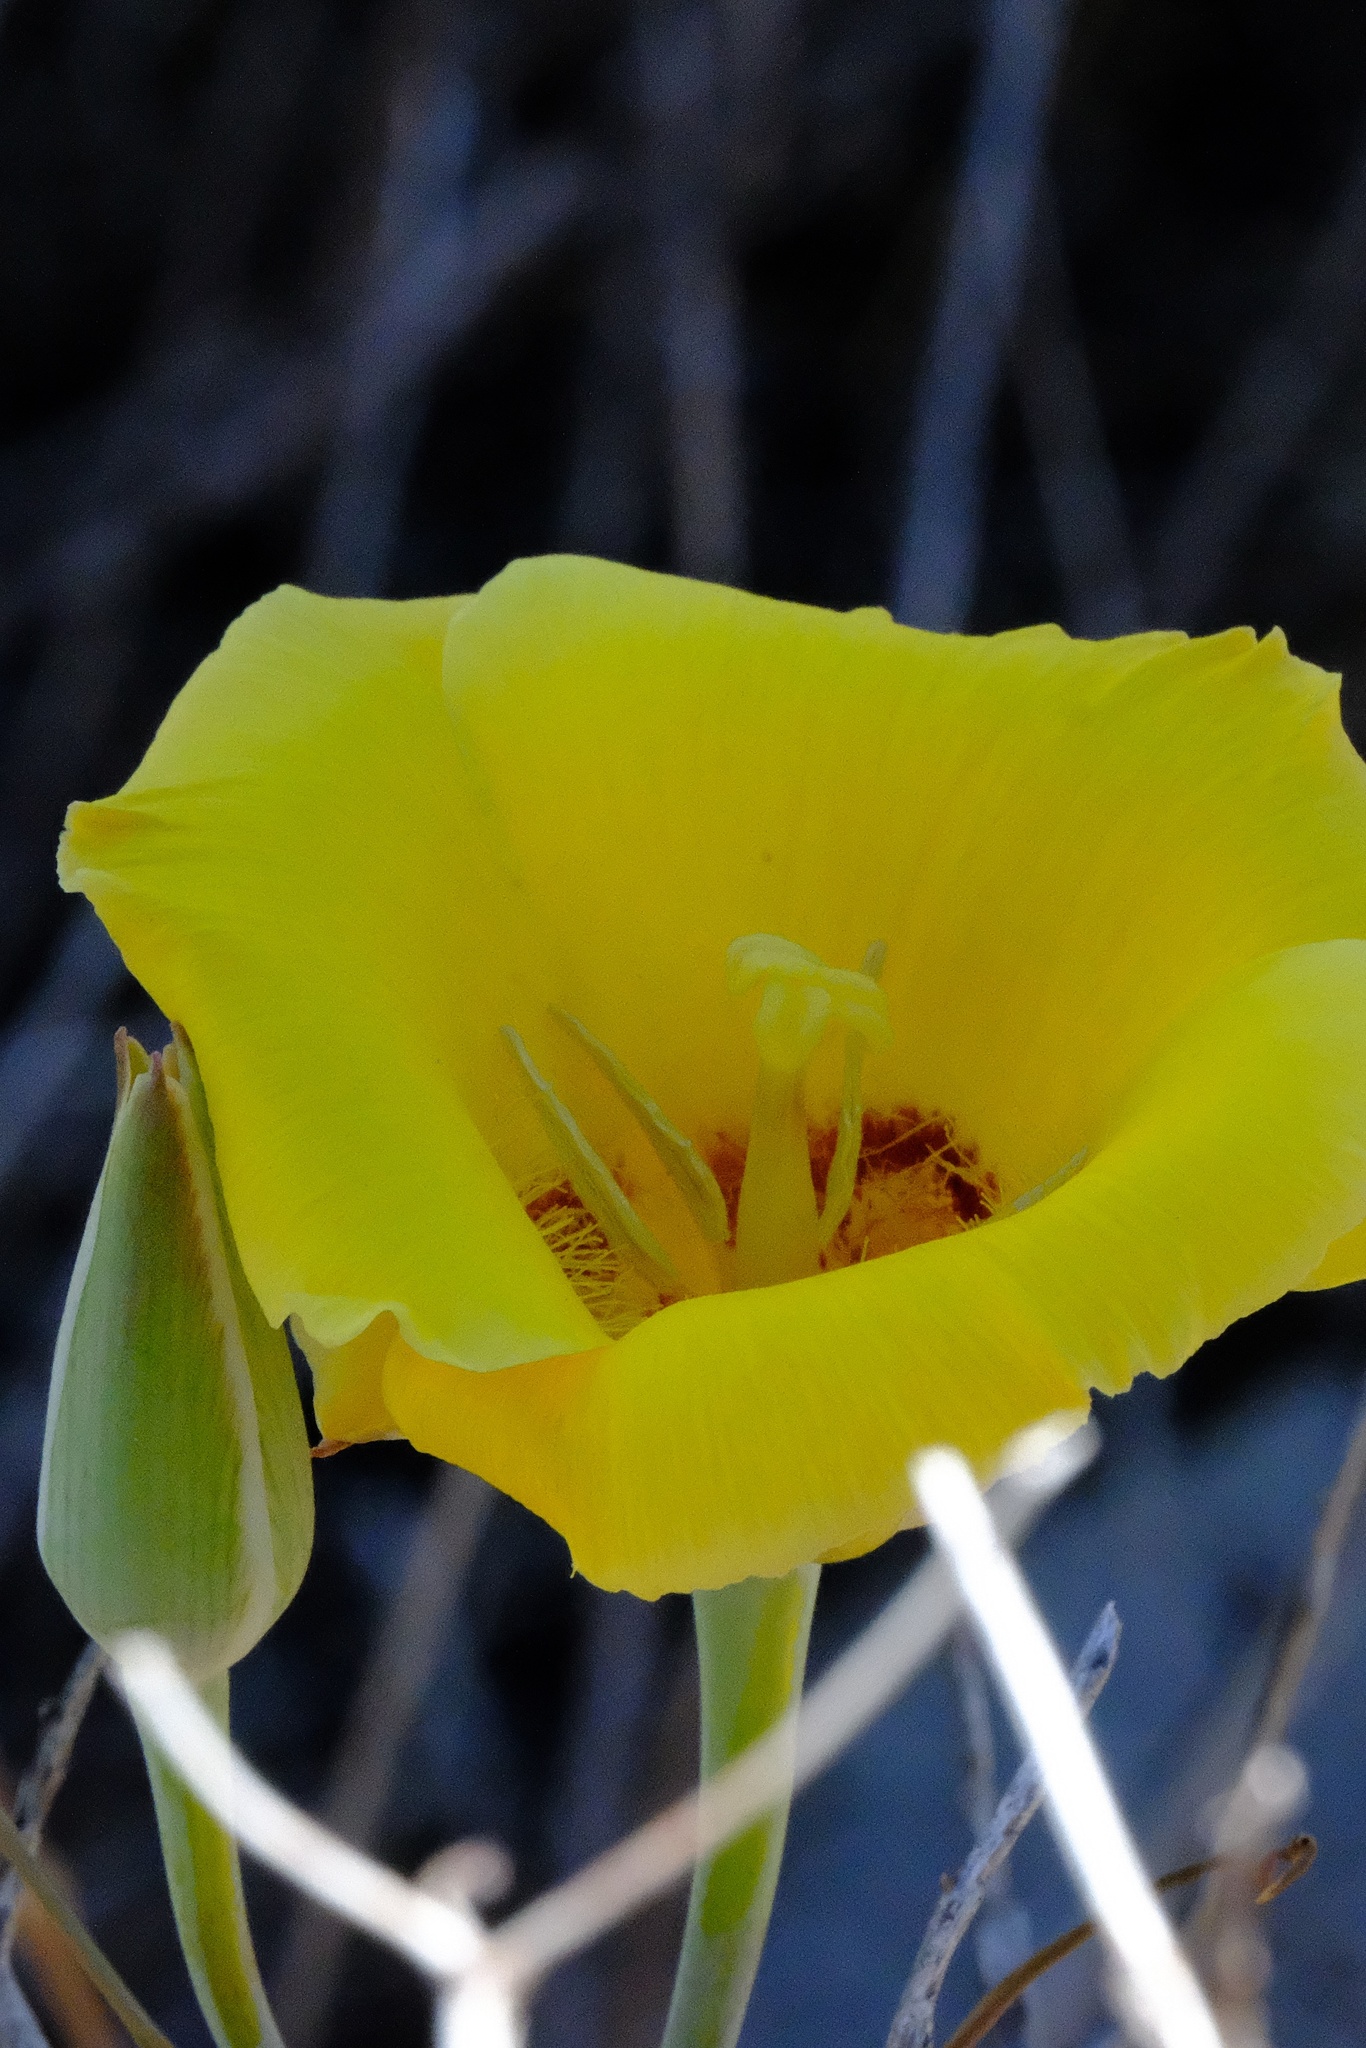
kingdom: Plantae
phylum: Tracheophyta
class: Liliopsida
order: Liliales
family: Liliaceae
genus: Calochortus
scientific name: Calochortus concolor
